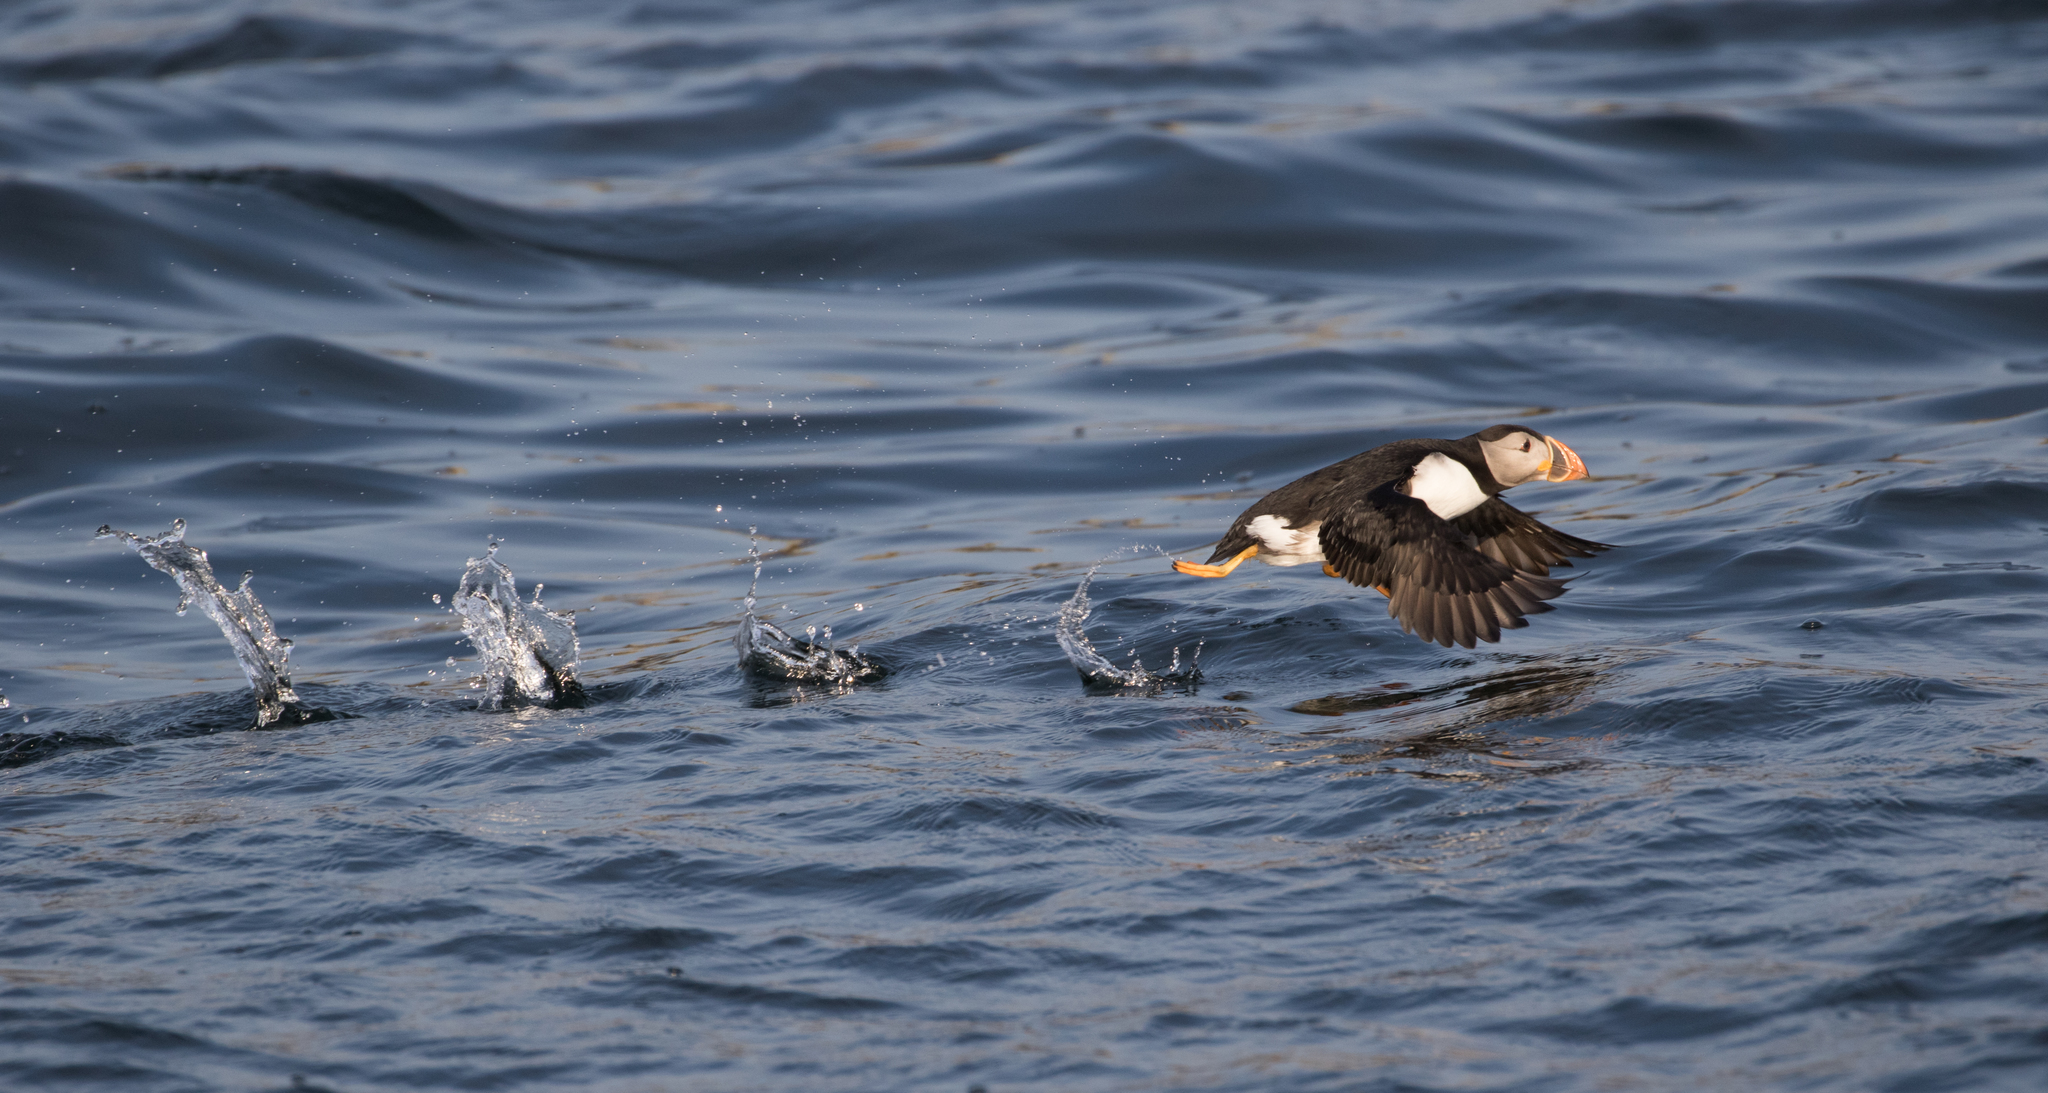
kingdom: Animalia
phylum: Chordata
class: Aves
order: Charadriiformes
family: Alcidae
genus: Fratercula
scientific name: Fratercula arctica
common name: Atlantic puffin
